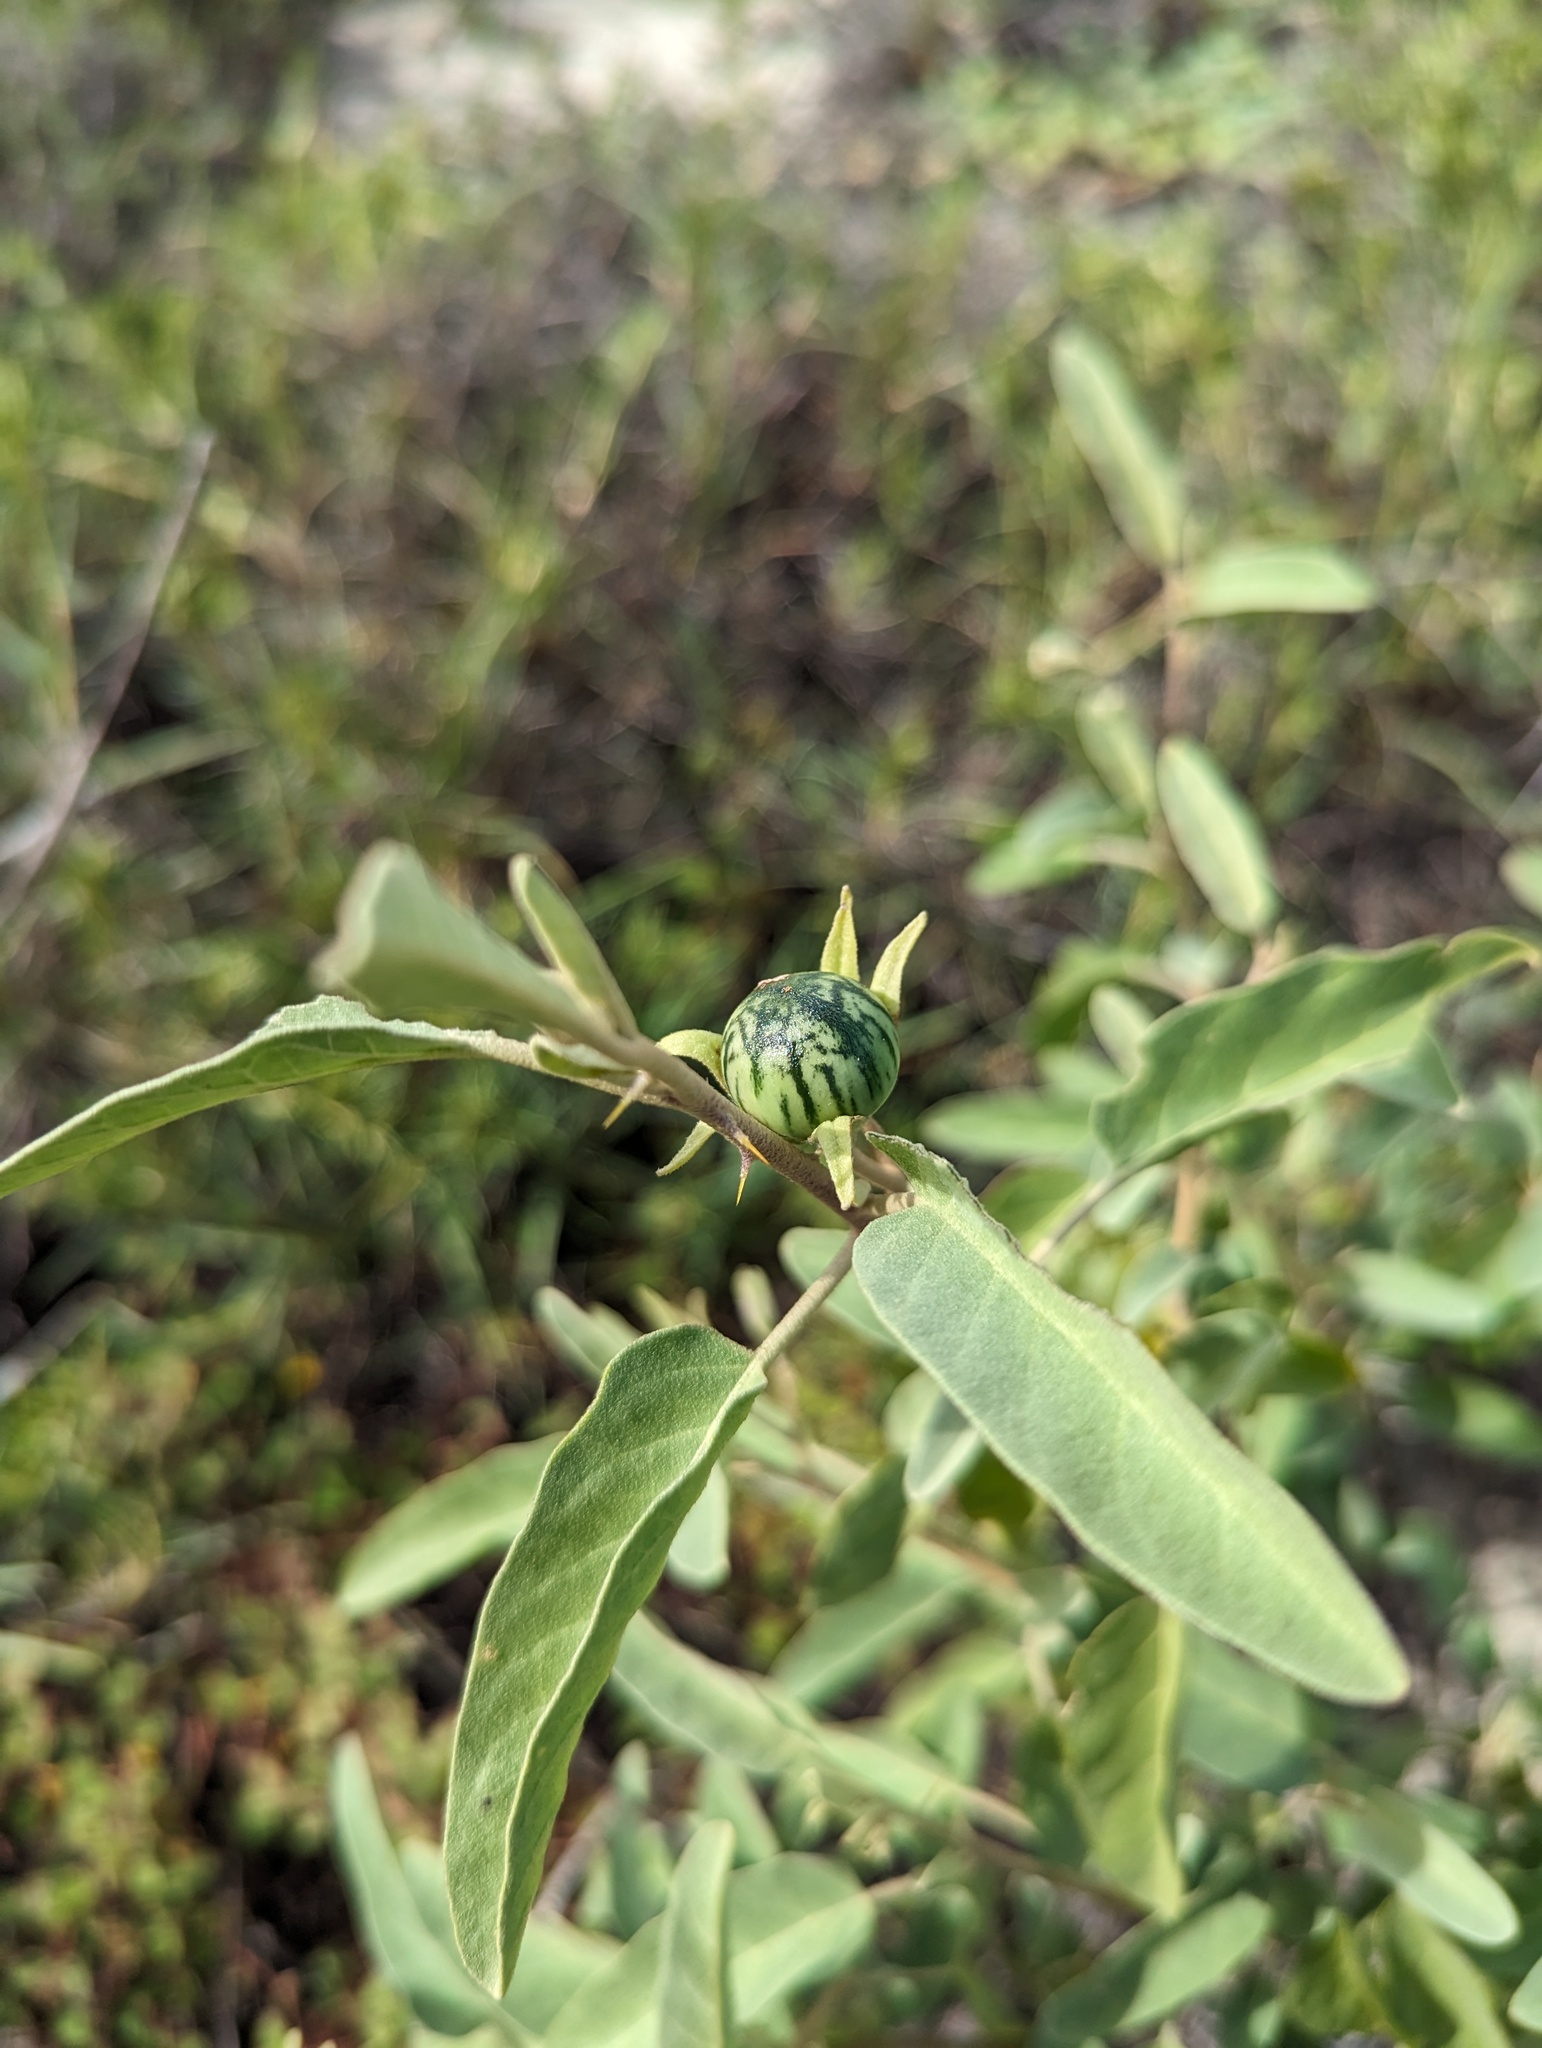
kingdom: Plantae
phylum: Tracheophyta
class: Magnoliopsida
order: Solanales
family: Solanaceae
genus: Solanum
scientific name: Solanum hindsianum
